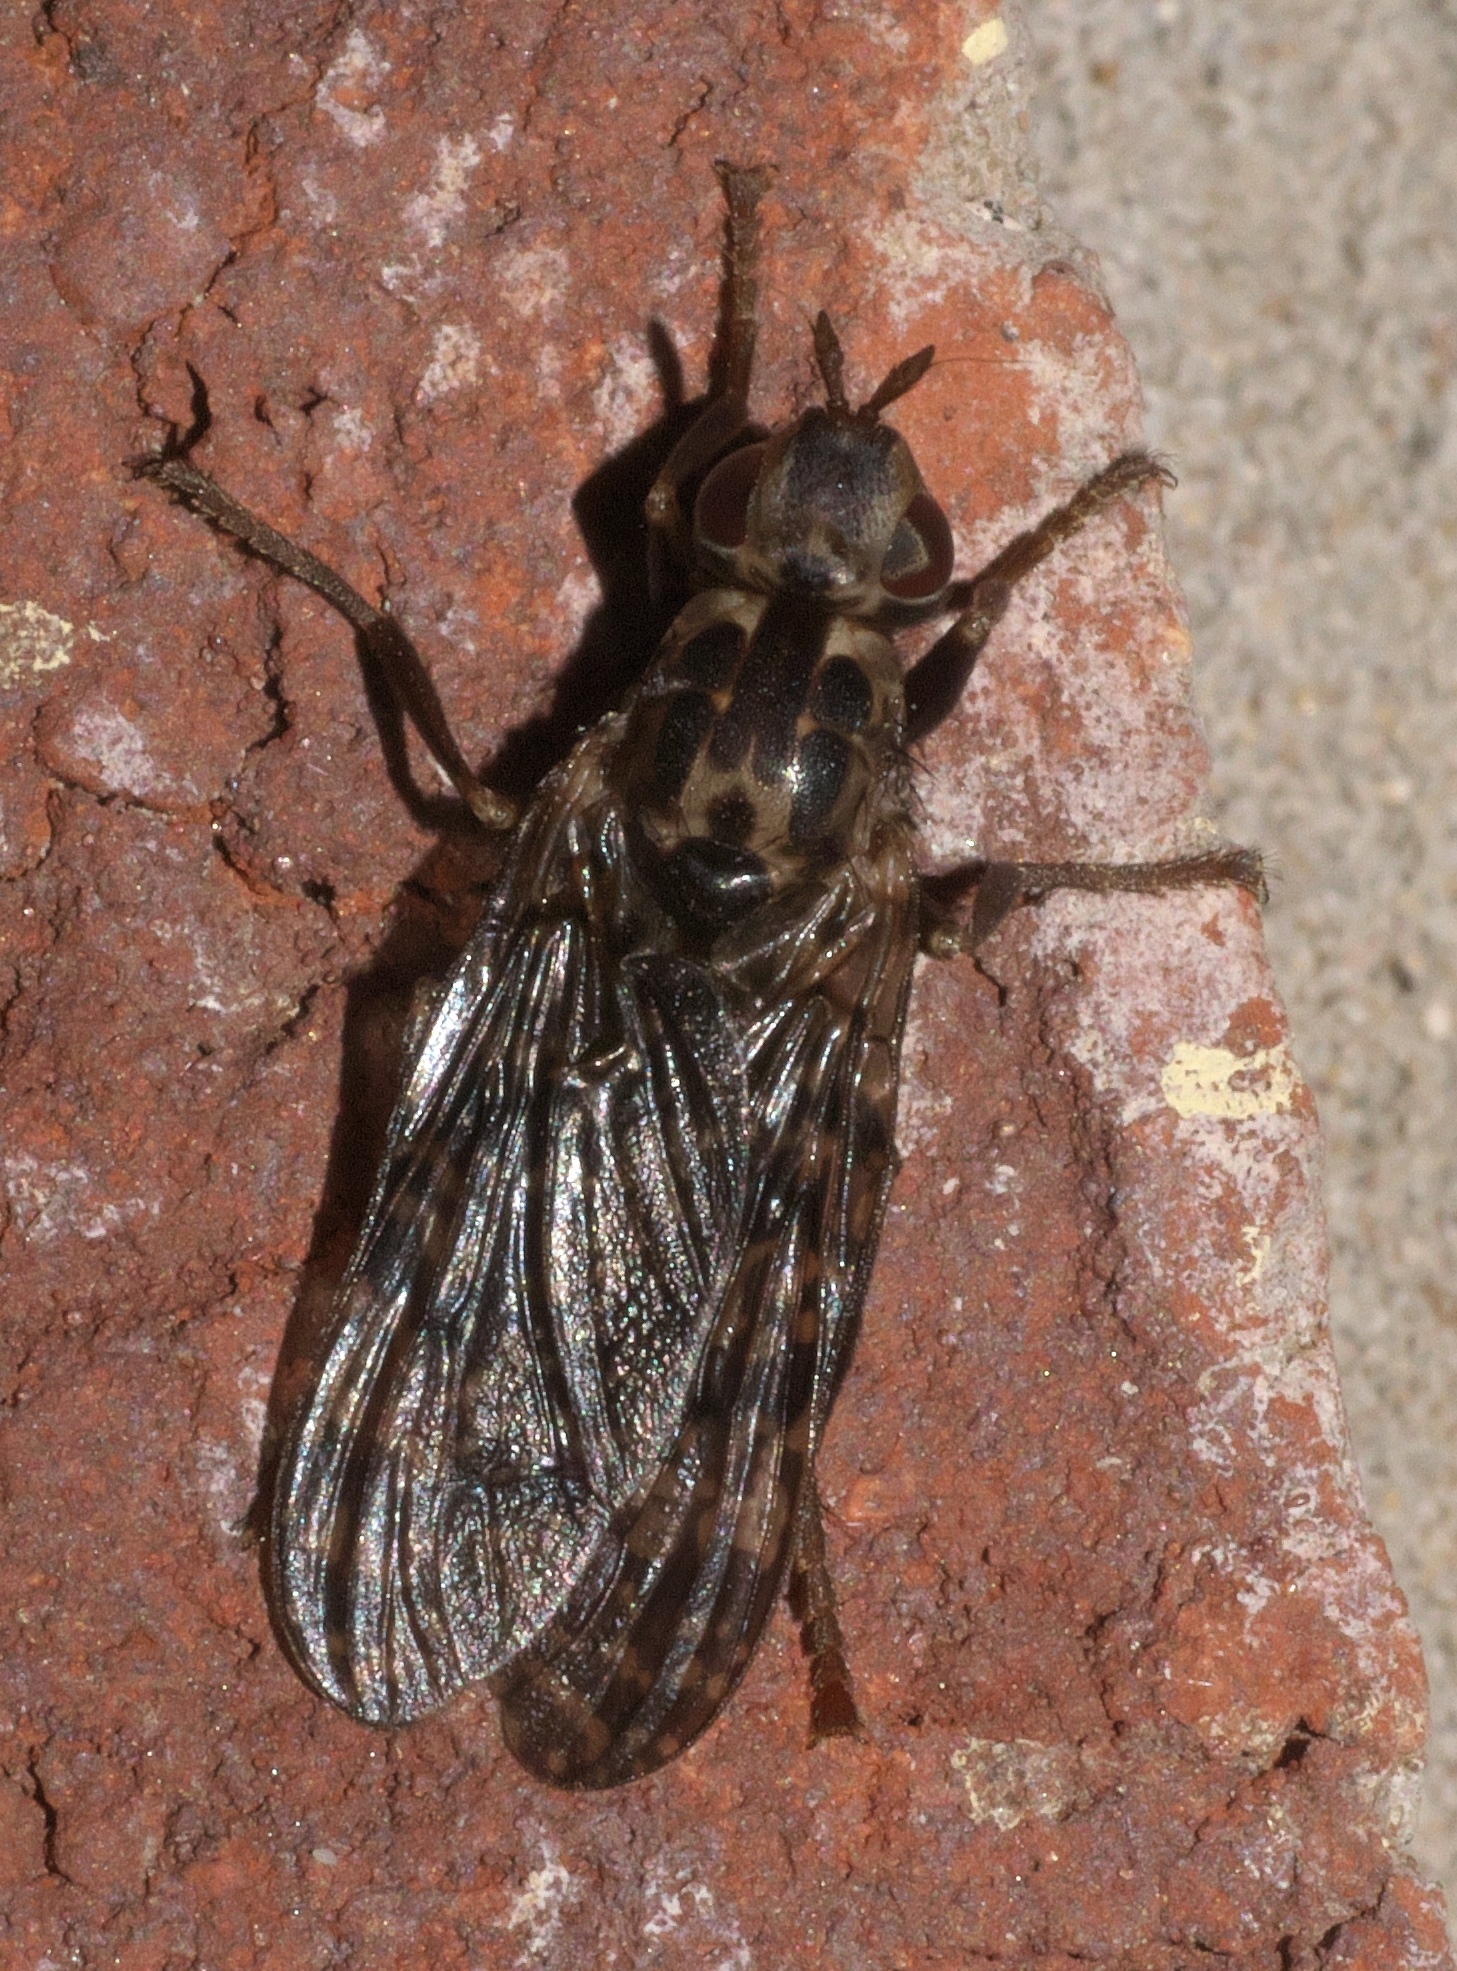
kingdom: Animalia
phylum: Arthropoda
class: Insecta
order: Diptera
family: Pyrgotidae
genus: Pyrgota
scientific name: Pyrgota valida
